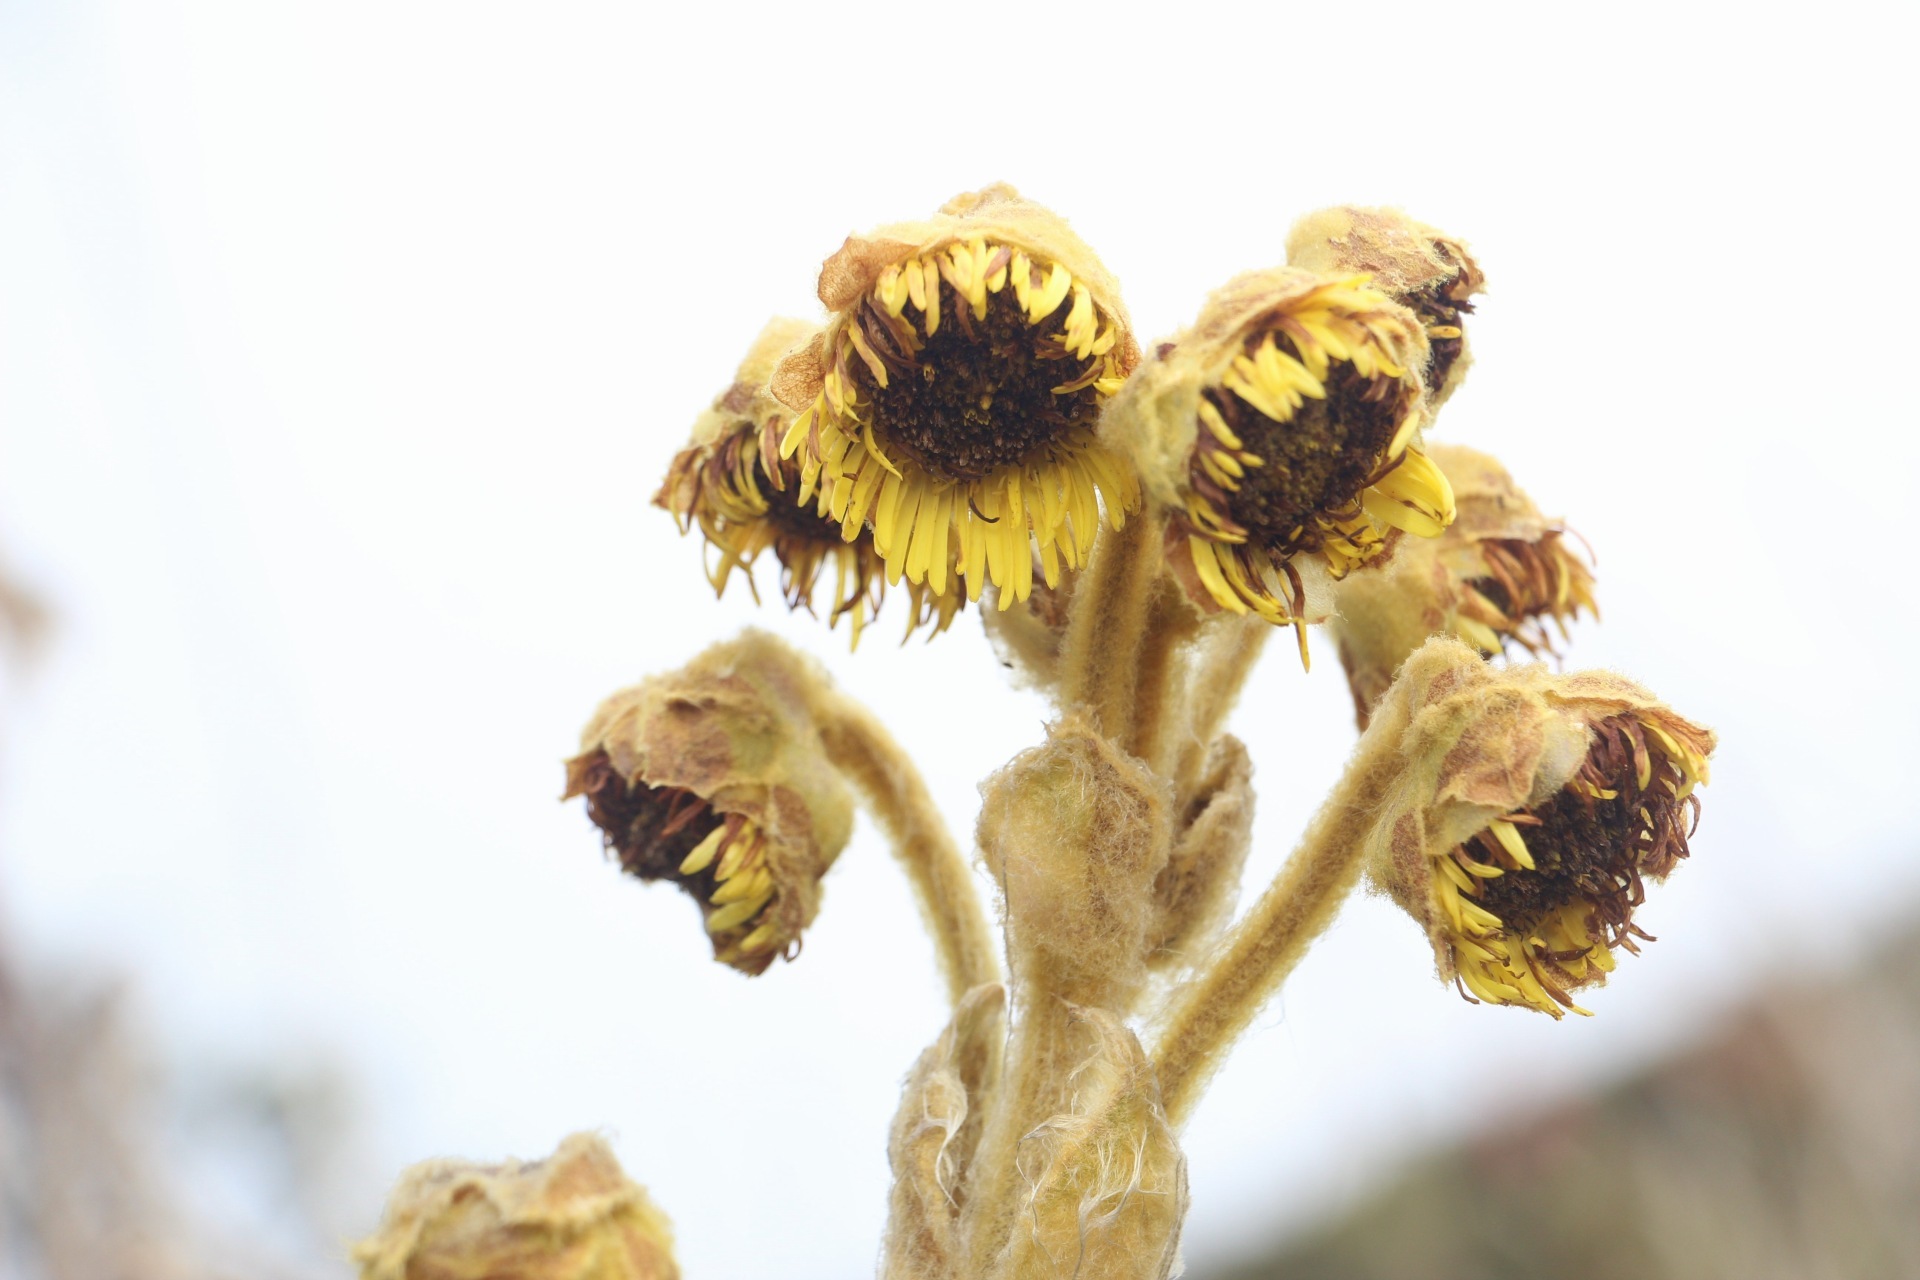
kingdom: Plantae
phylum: Tracheophyta
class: Magnoliopsida
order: Asterales
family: Asteraceae
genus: Espeletia
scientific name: Espeletia grandiflora
